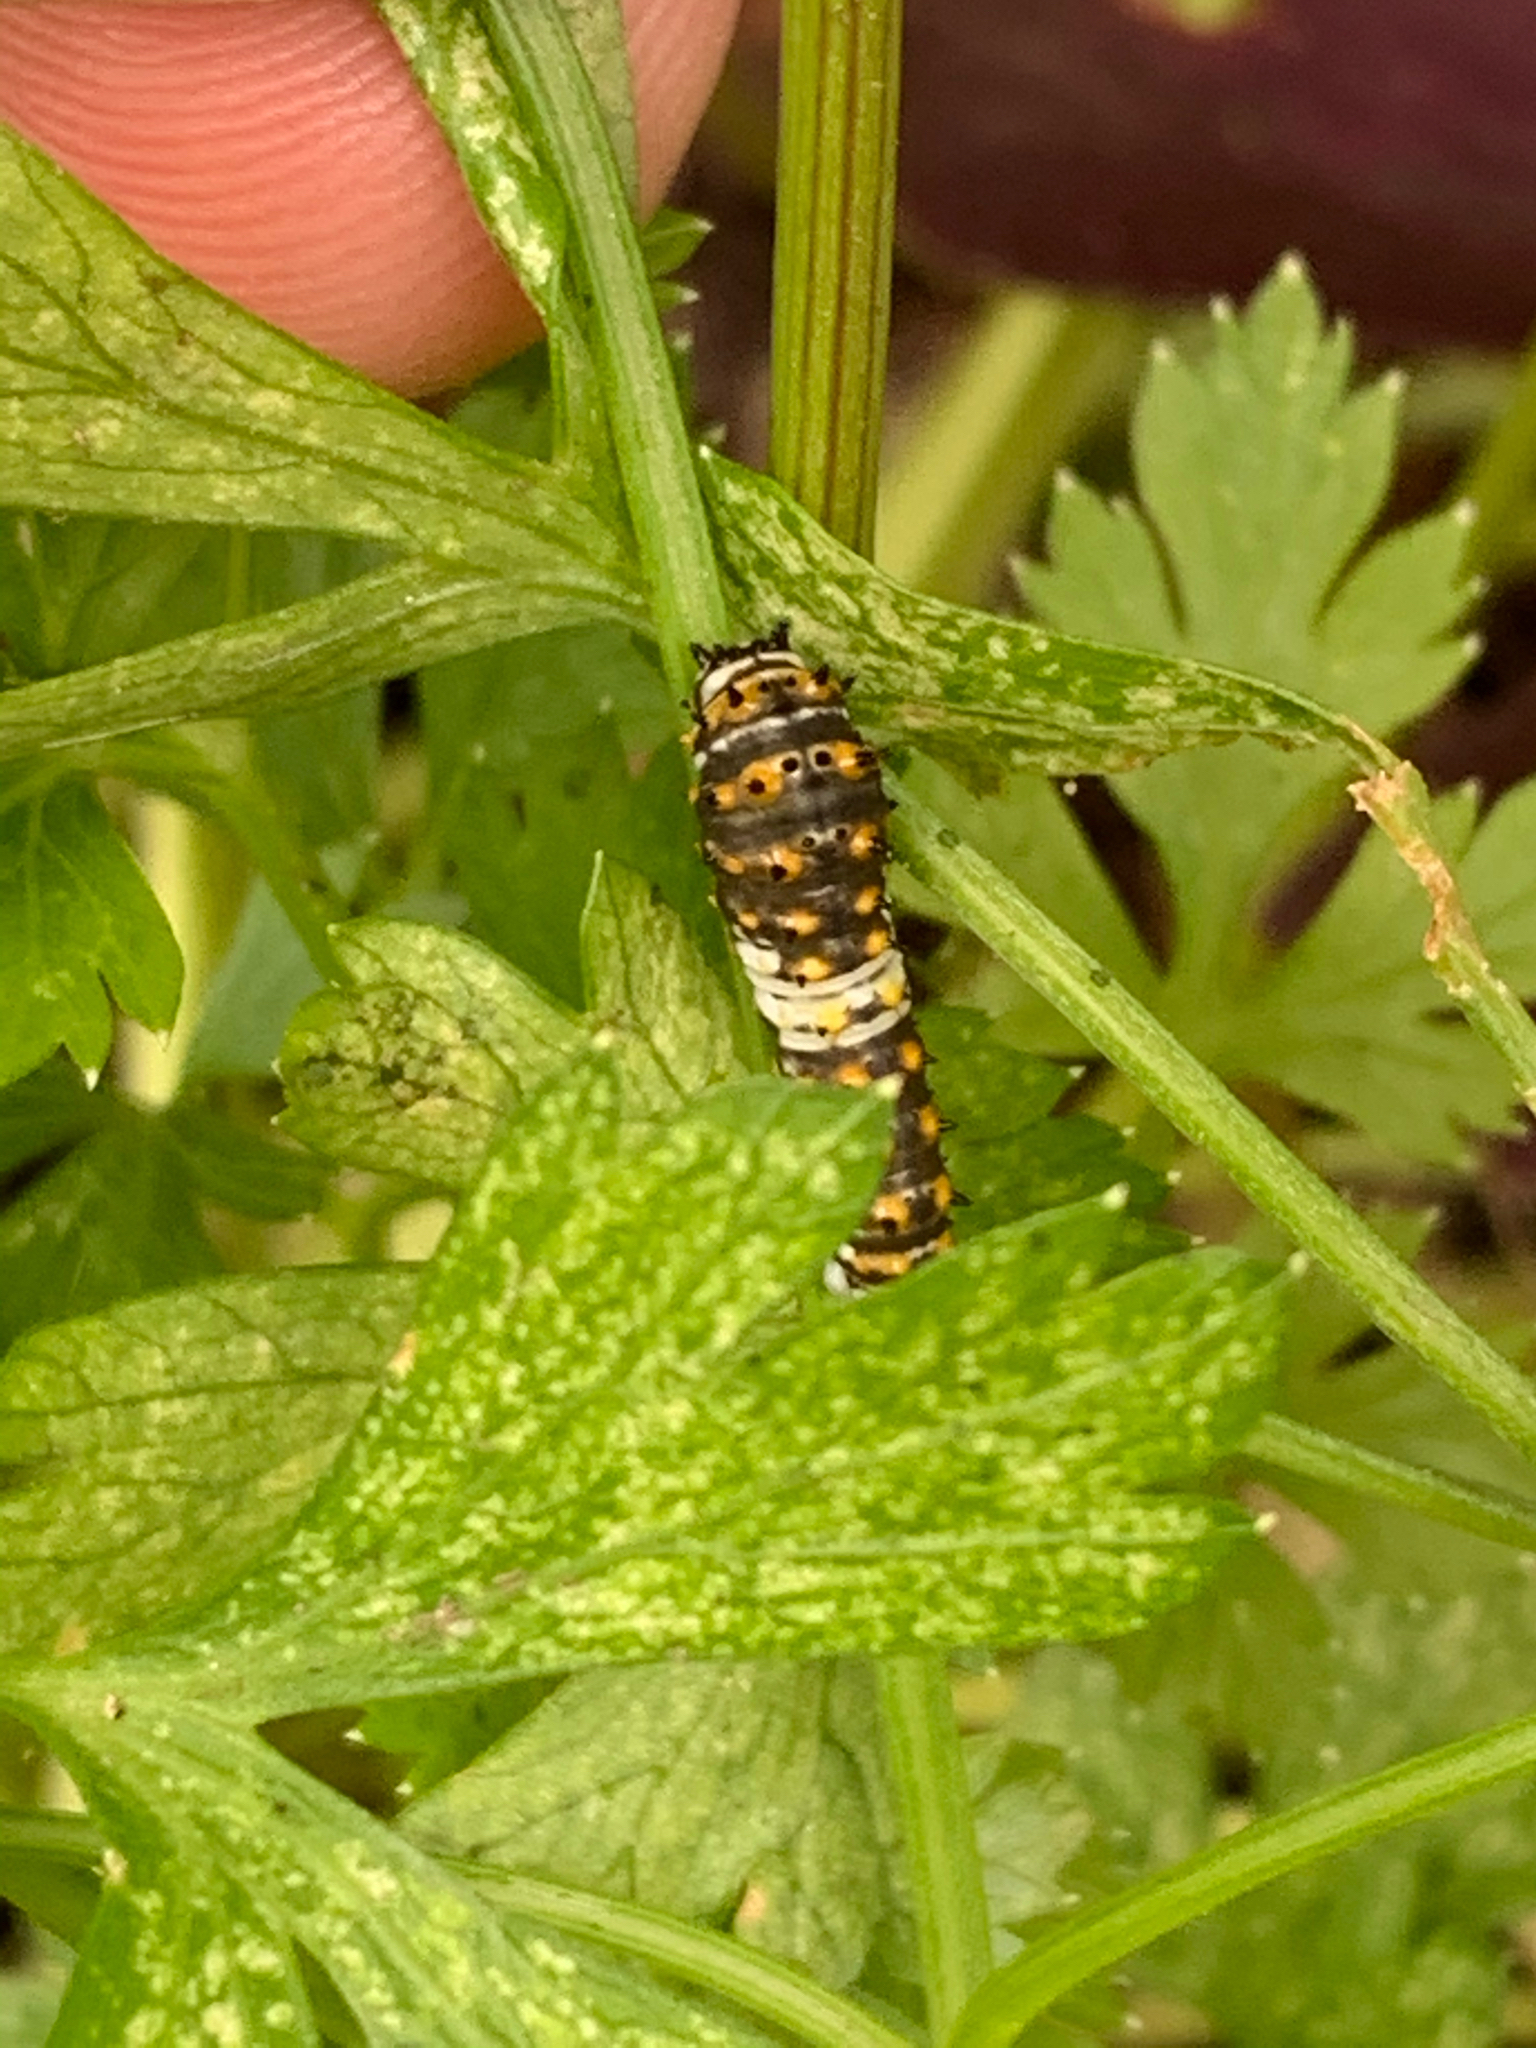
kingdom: Animalia
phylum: Arthropoda
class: Insecta
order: Lepidoptera
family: Papilionidae
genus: Papilio
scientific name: Papilio polyxenes
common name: Black swallowtail
